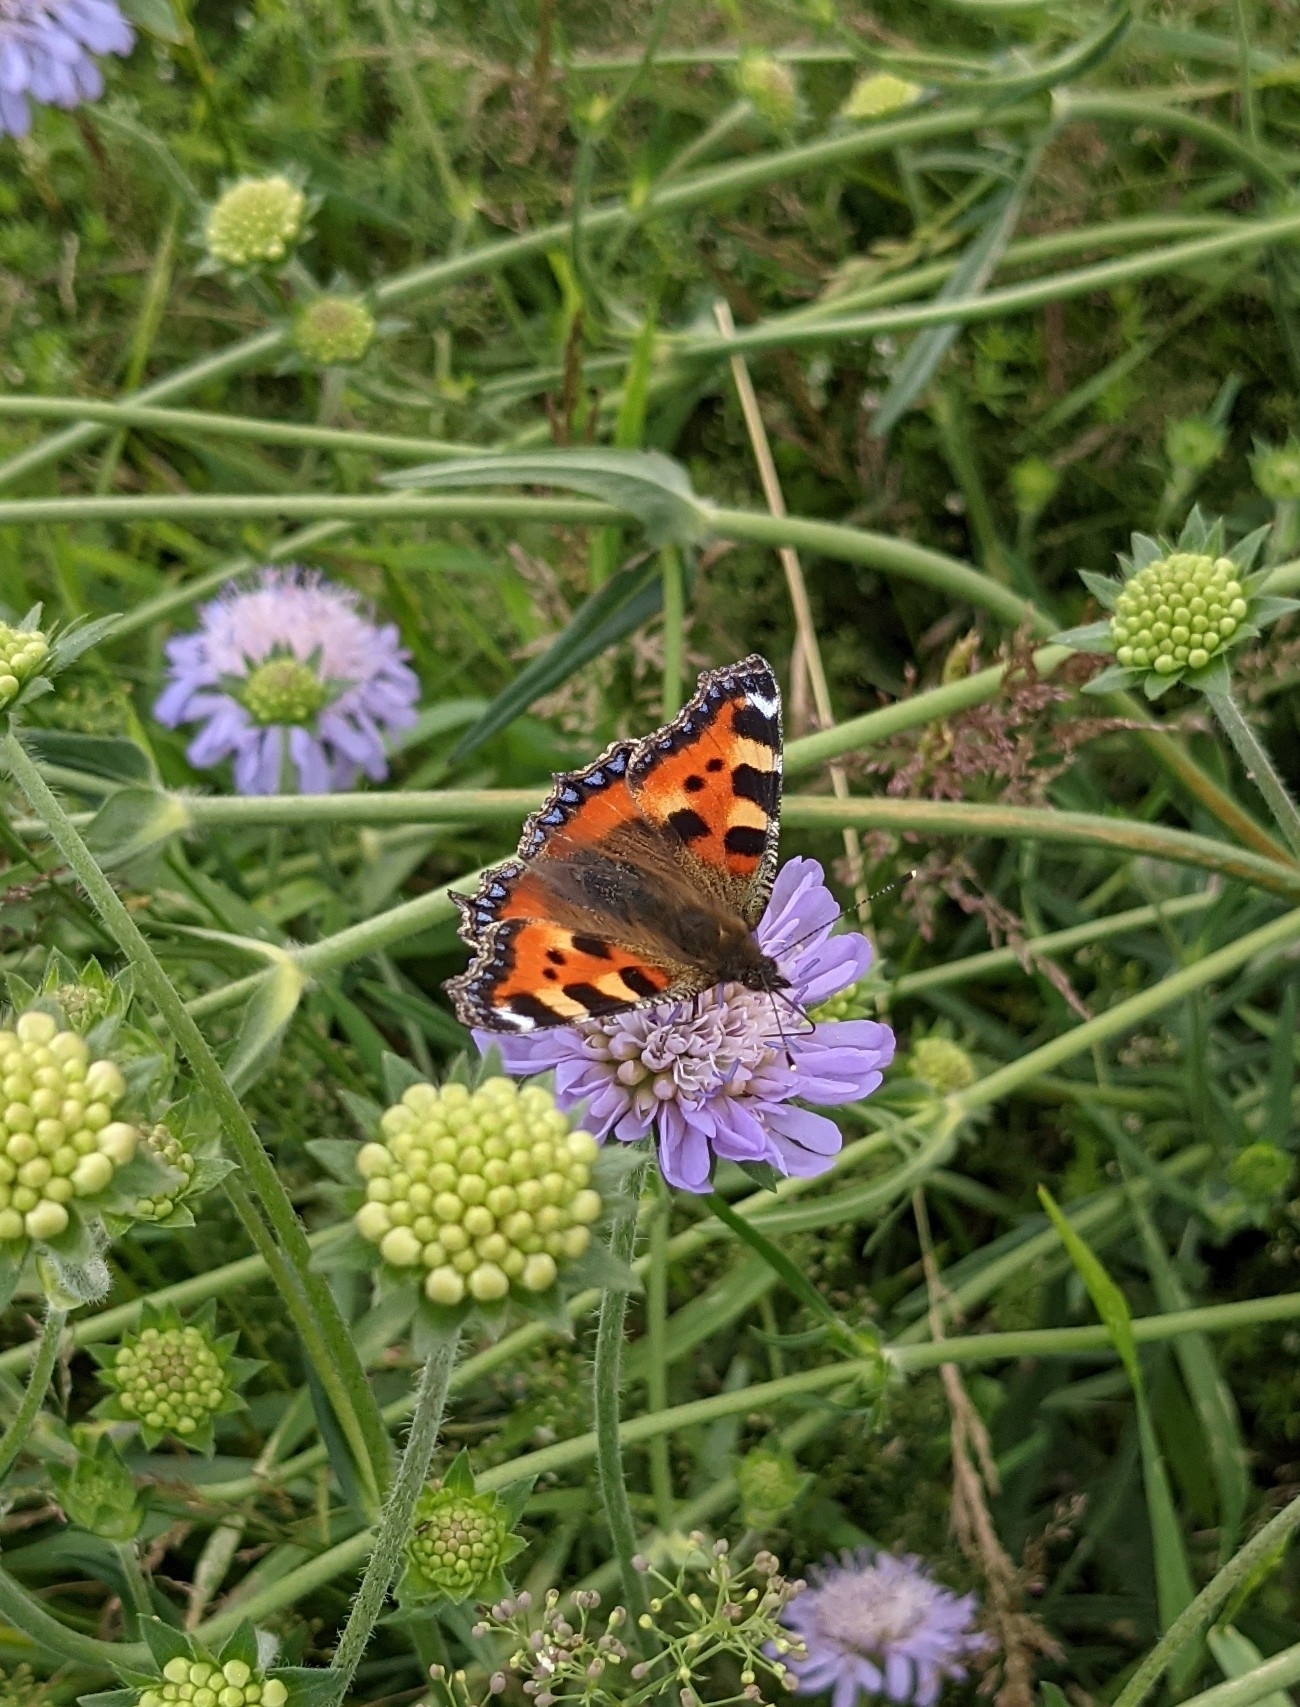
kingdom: Animalia
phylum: Arthropoda
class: Insecta
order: Lepidoptera
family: Nymphalidae
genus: Aglais
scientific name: Aglais urticae
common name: Small tortoiseshell
